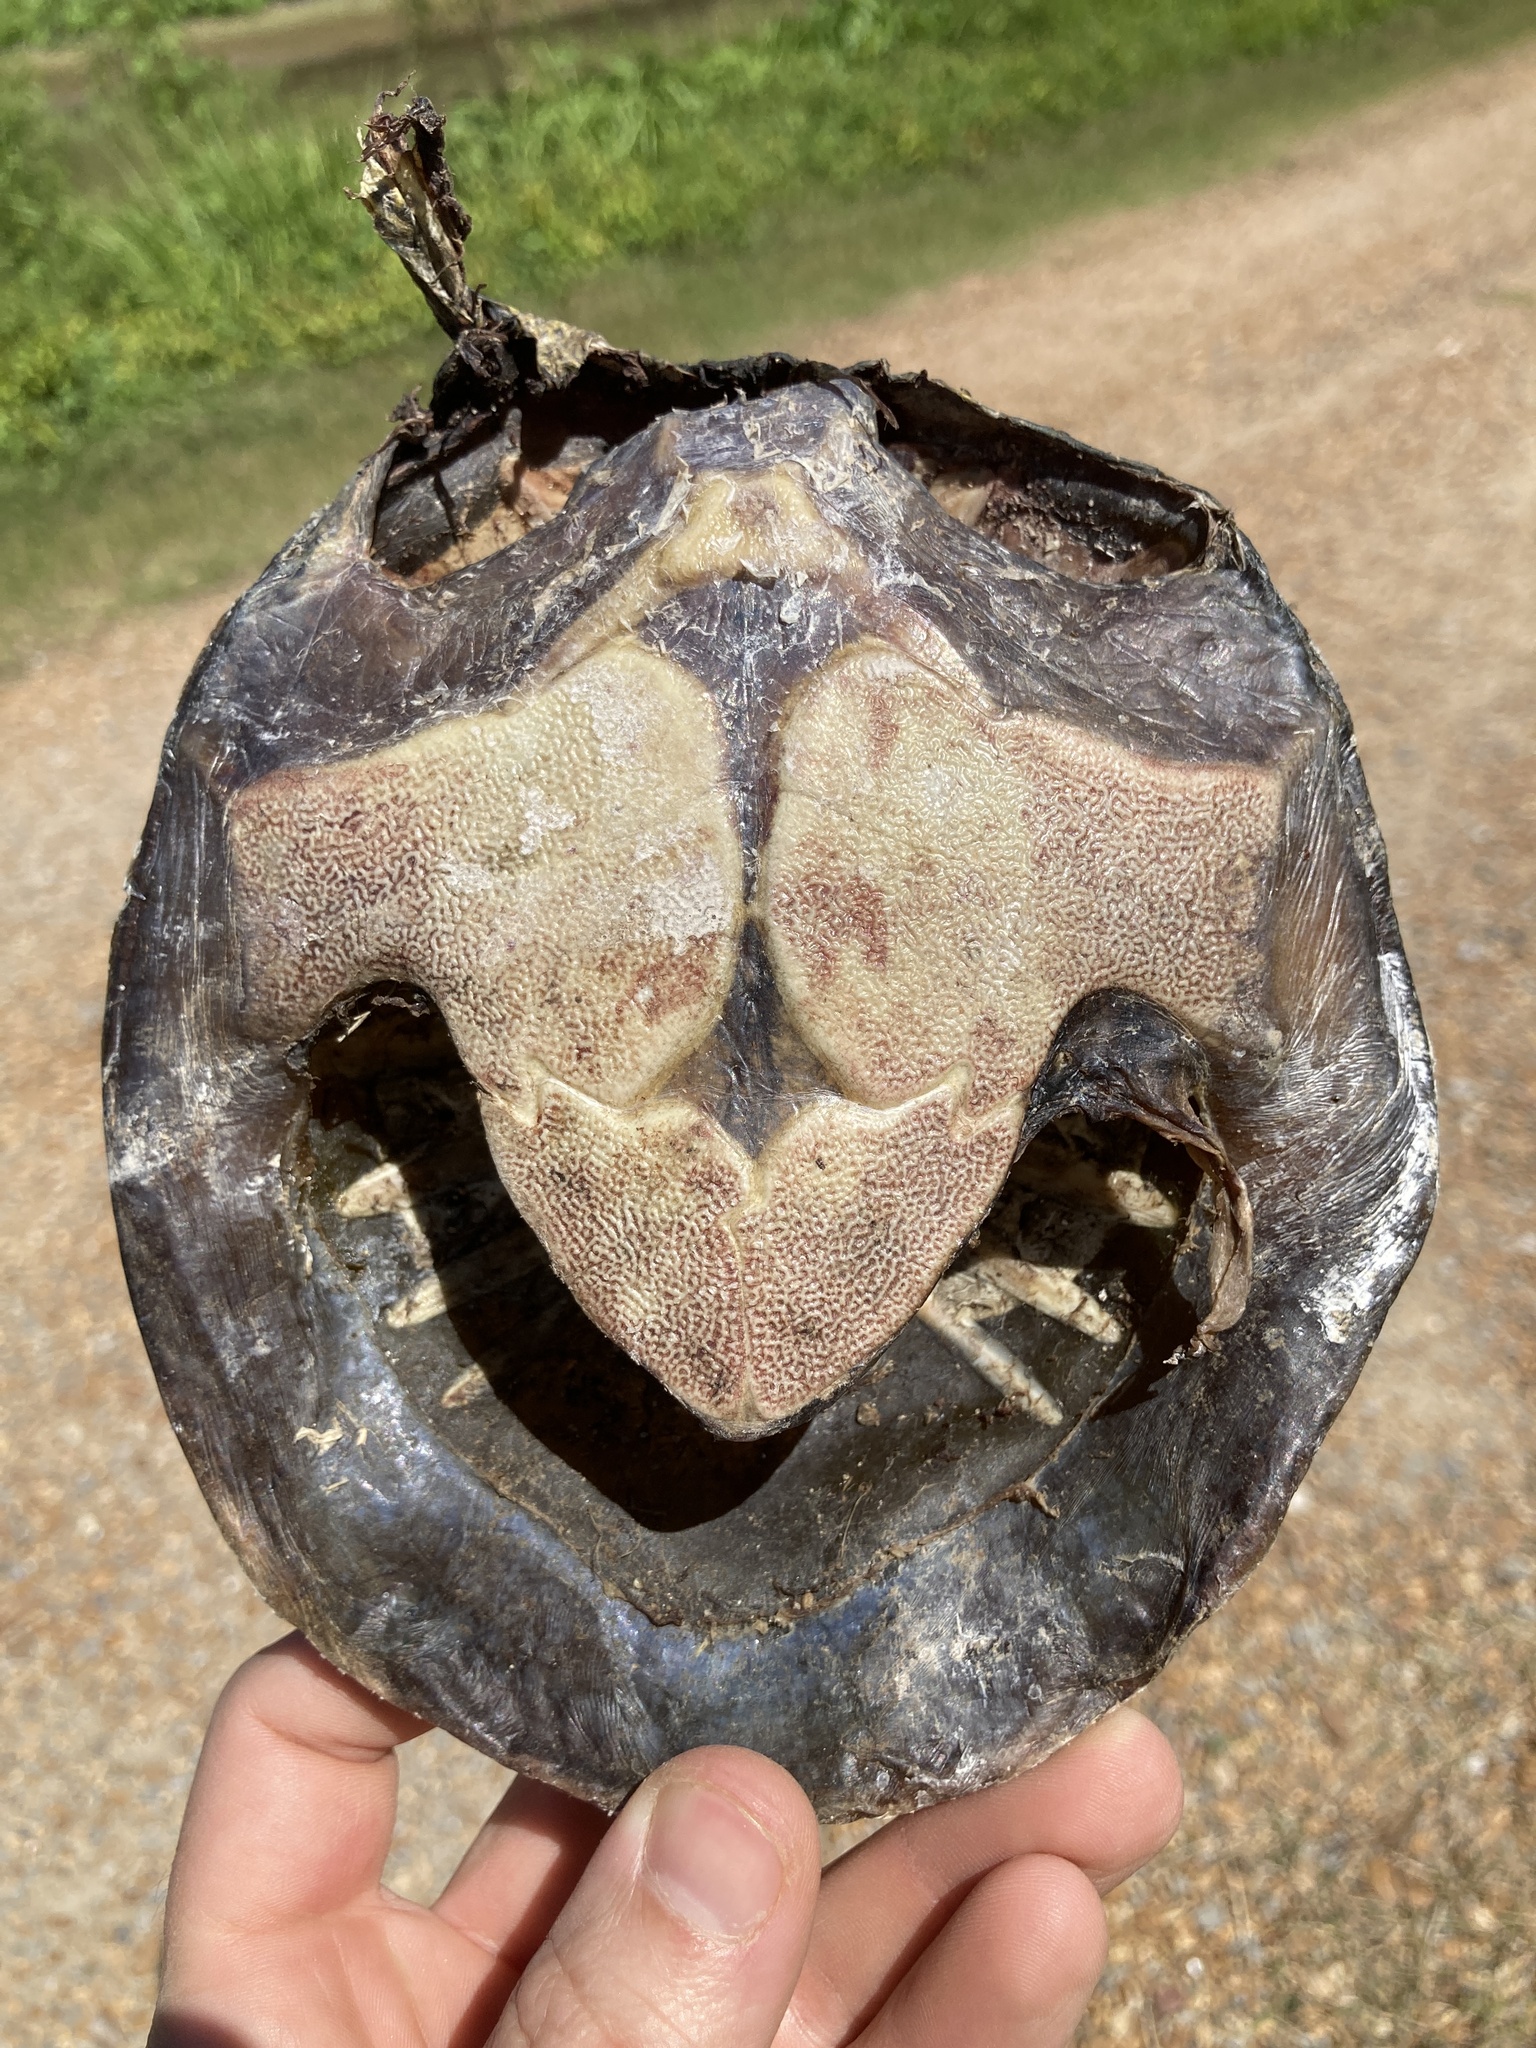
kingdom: Animalia
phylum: Chordata
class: Testudines
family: Trionychidae
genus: Apalone
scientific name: Apalone spinifera
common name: Spiny softshell turtle
